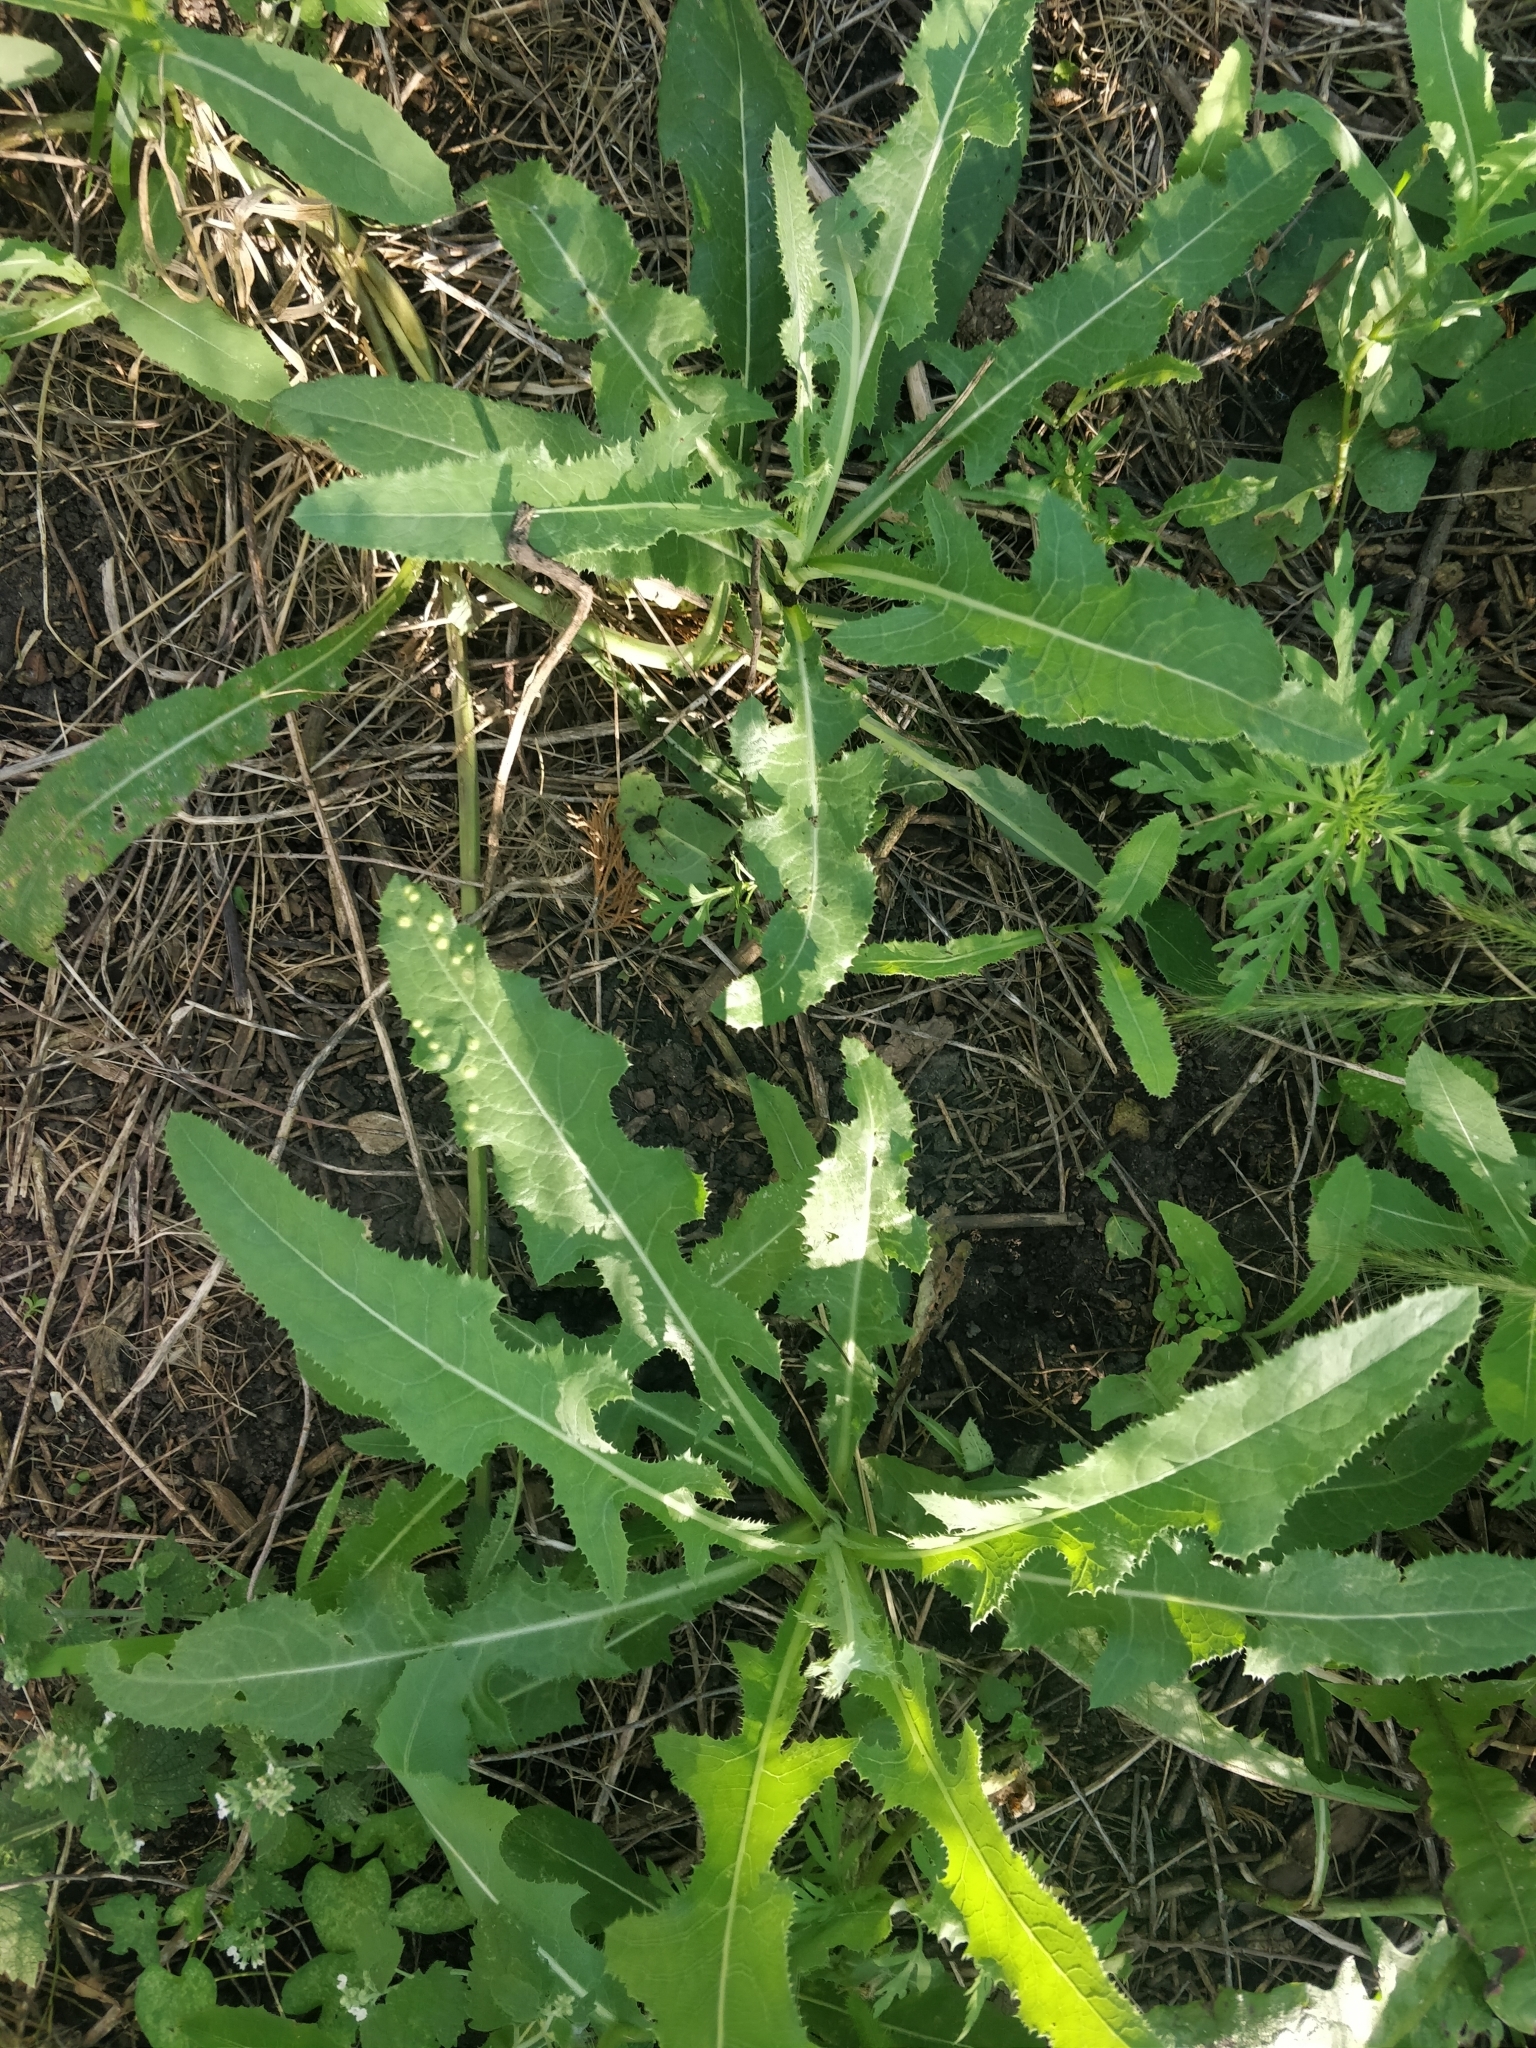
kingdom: Plantae
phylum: Tracheophyta
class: Magnoliopsida
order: Asterales
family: Asteraceae
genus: Sonchus
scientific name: Sonchus arvensis
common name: Perennial sow-thistle
